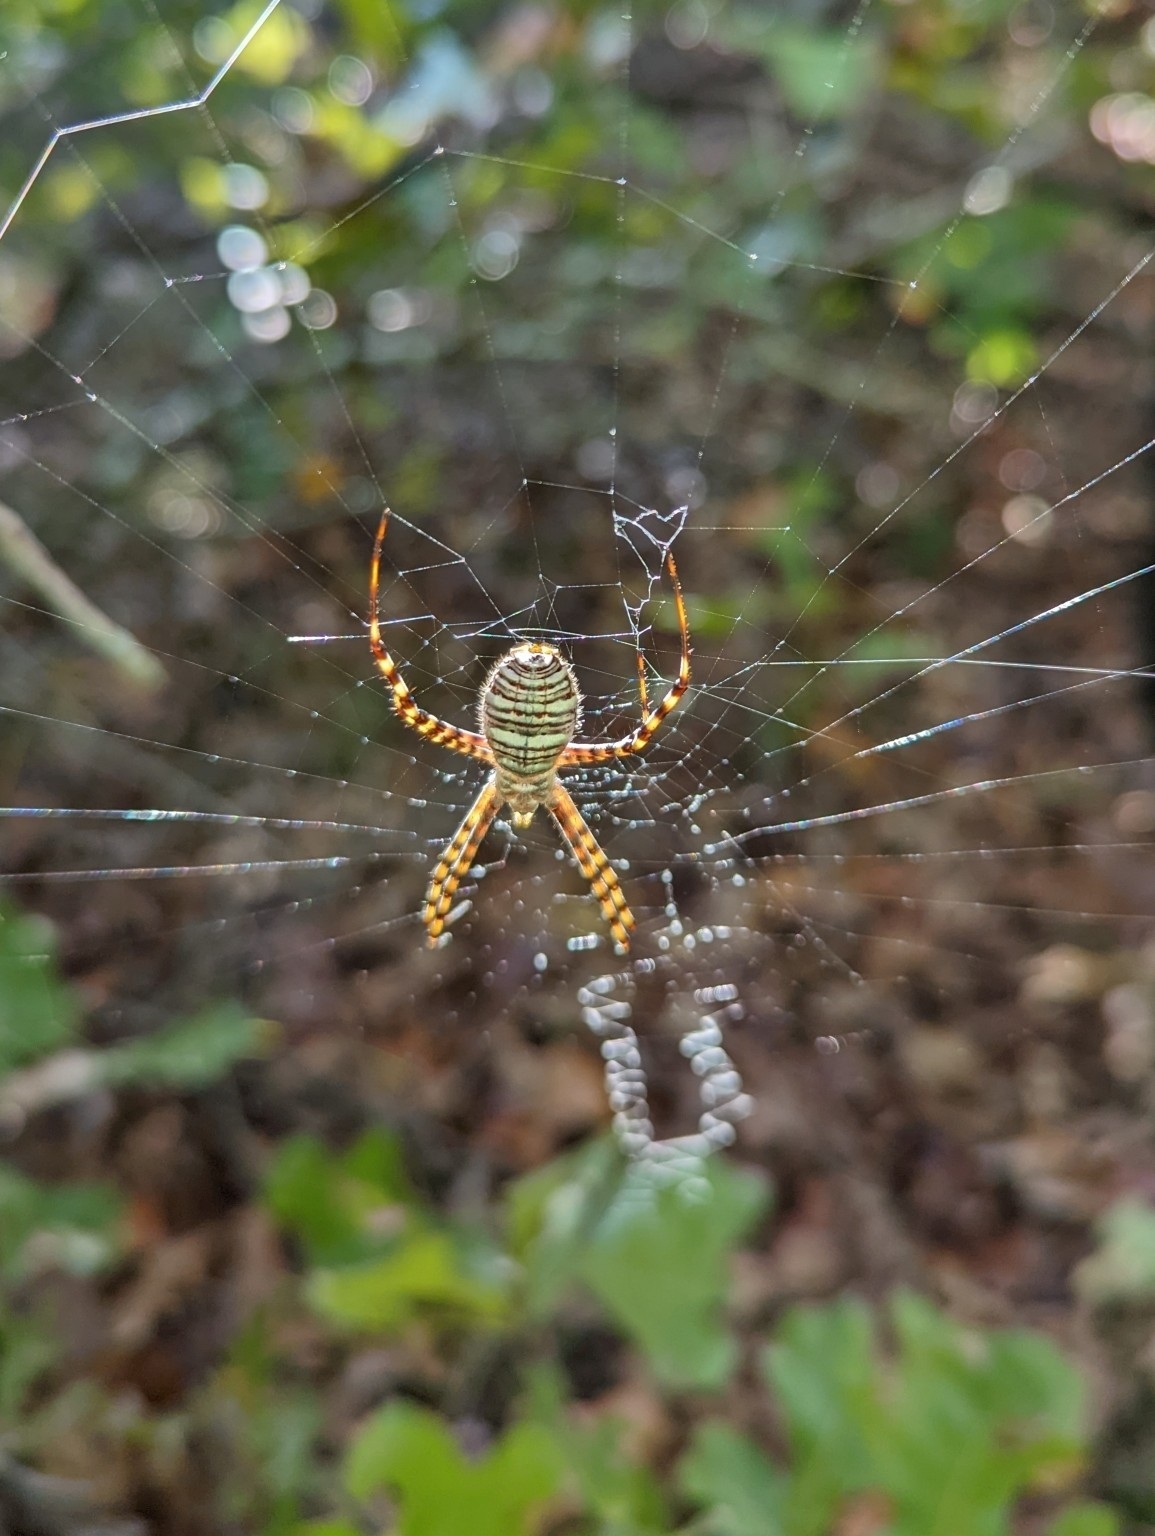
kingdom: Animalia
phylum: Arthropoda
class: Arachnida
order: Araneae
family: Araneidae
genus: Argiope
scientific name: Argiope trifasciata
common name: Banded garden spider
